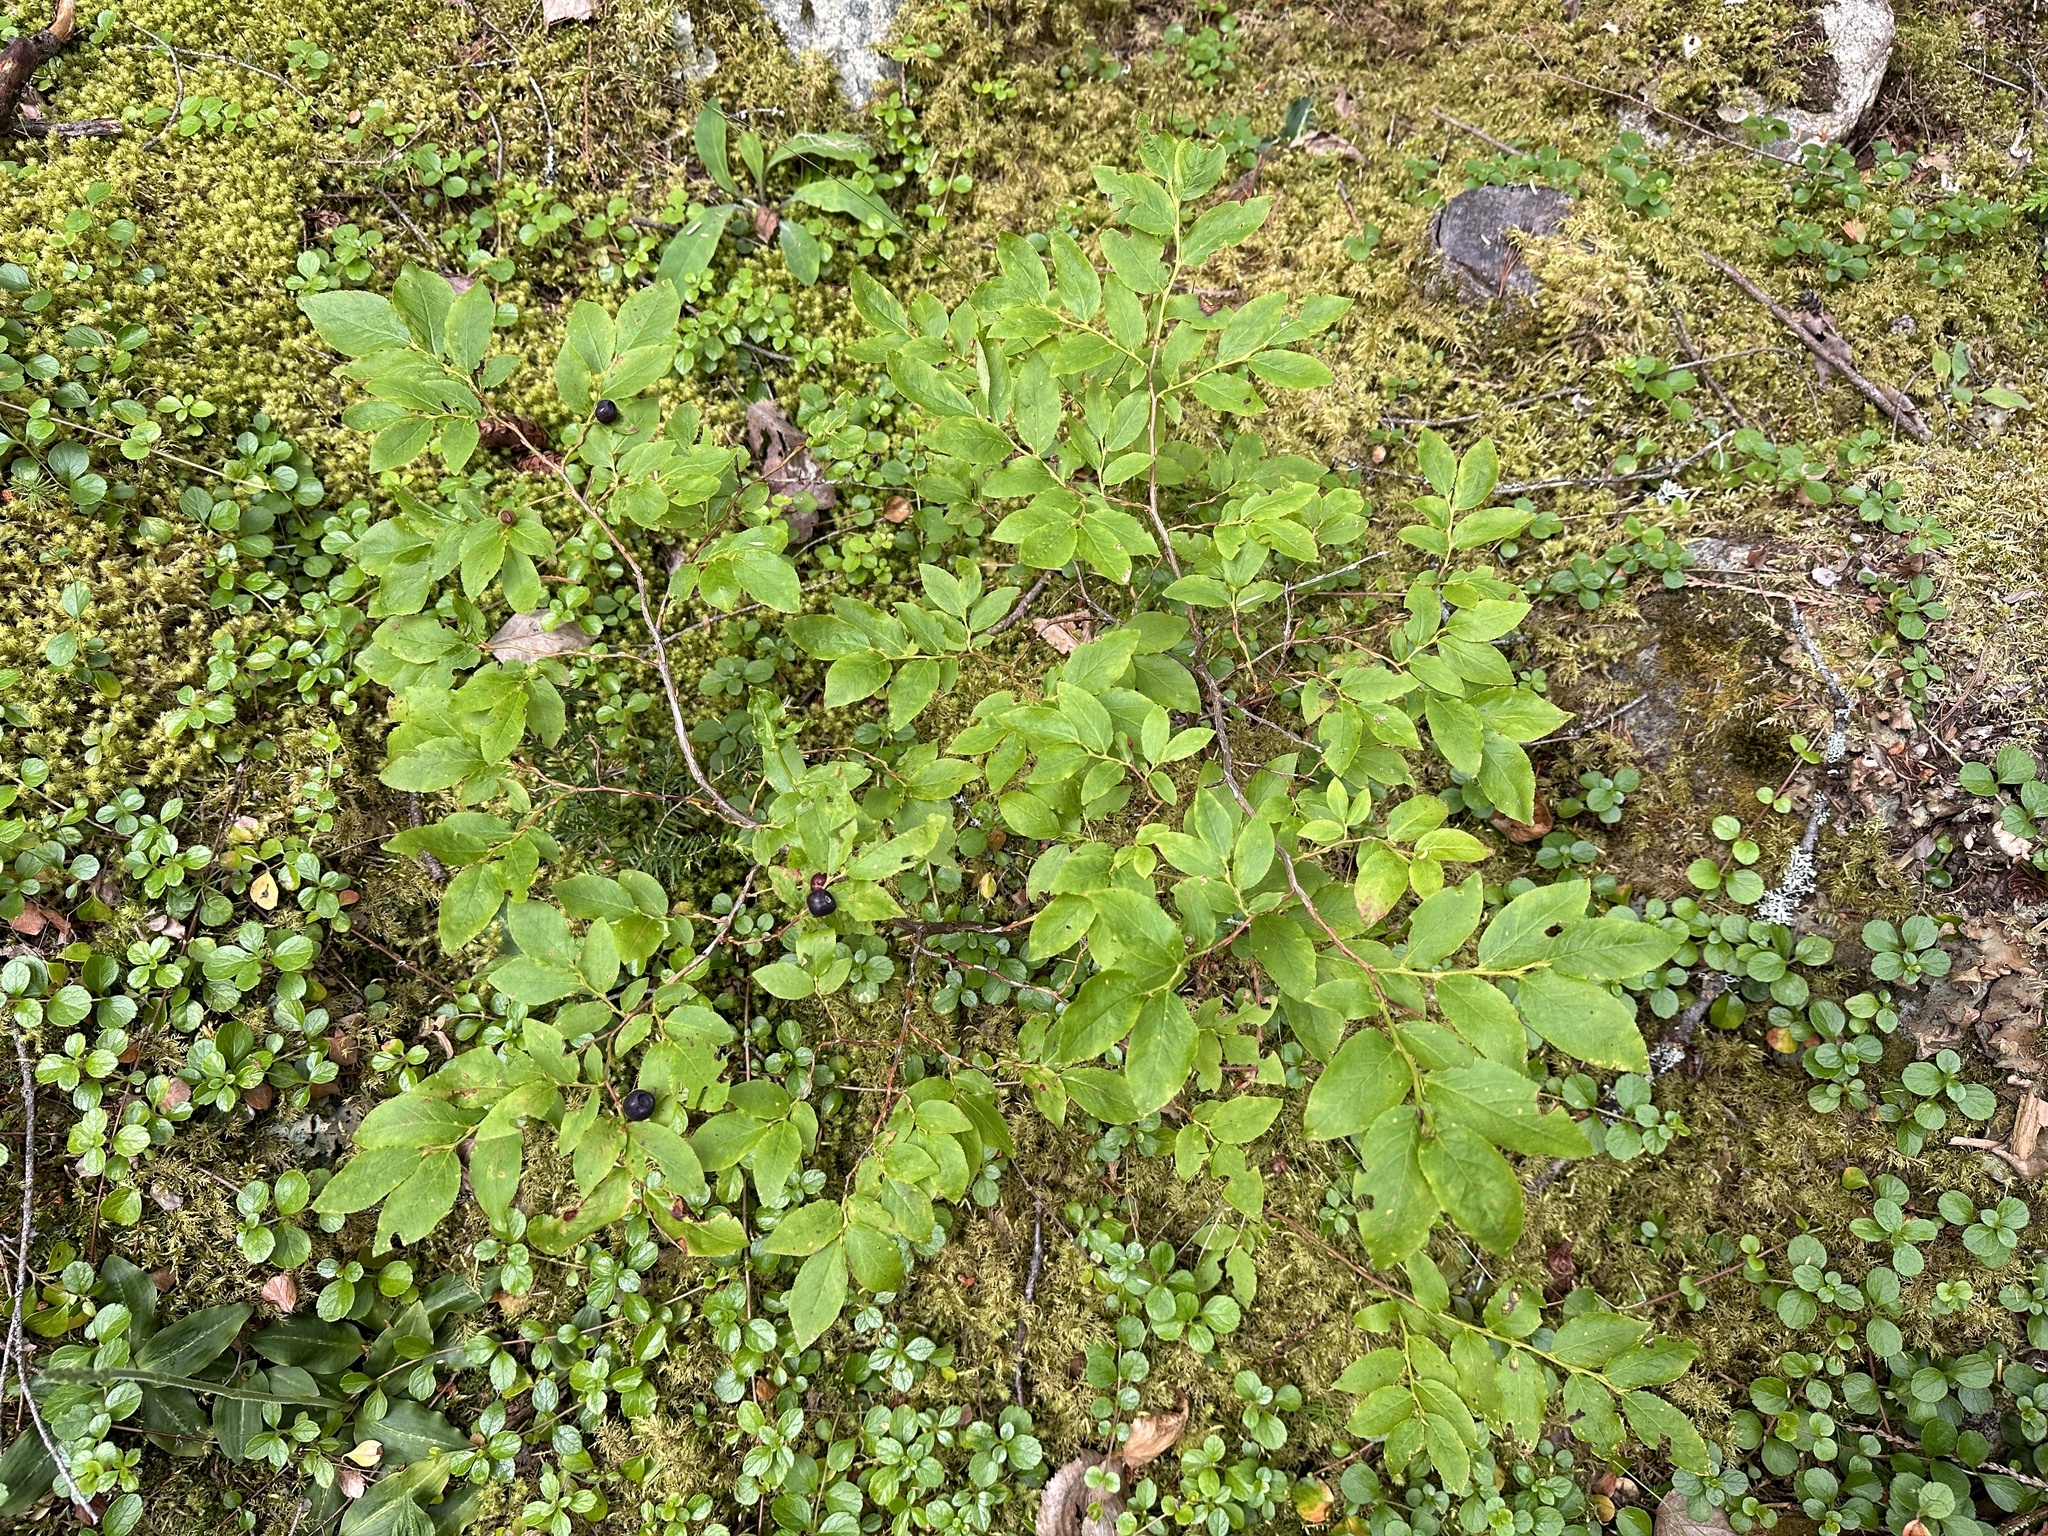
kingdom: Plantae
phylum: Tracheophyta
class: Magnoliopsida
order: Ericales
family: Ericaceae
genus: Vaccinium
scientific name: Vaccinium membranaceum
